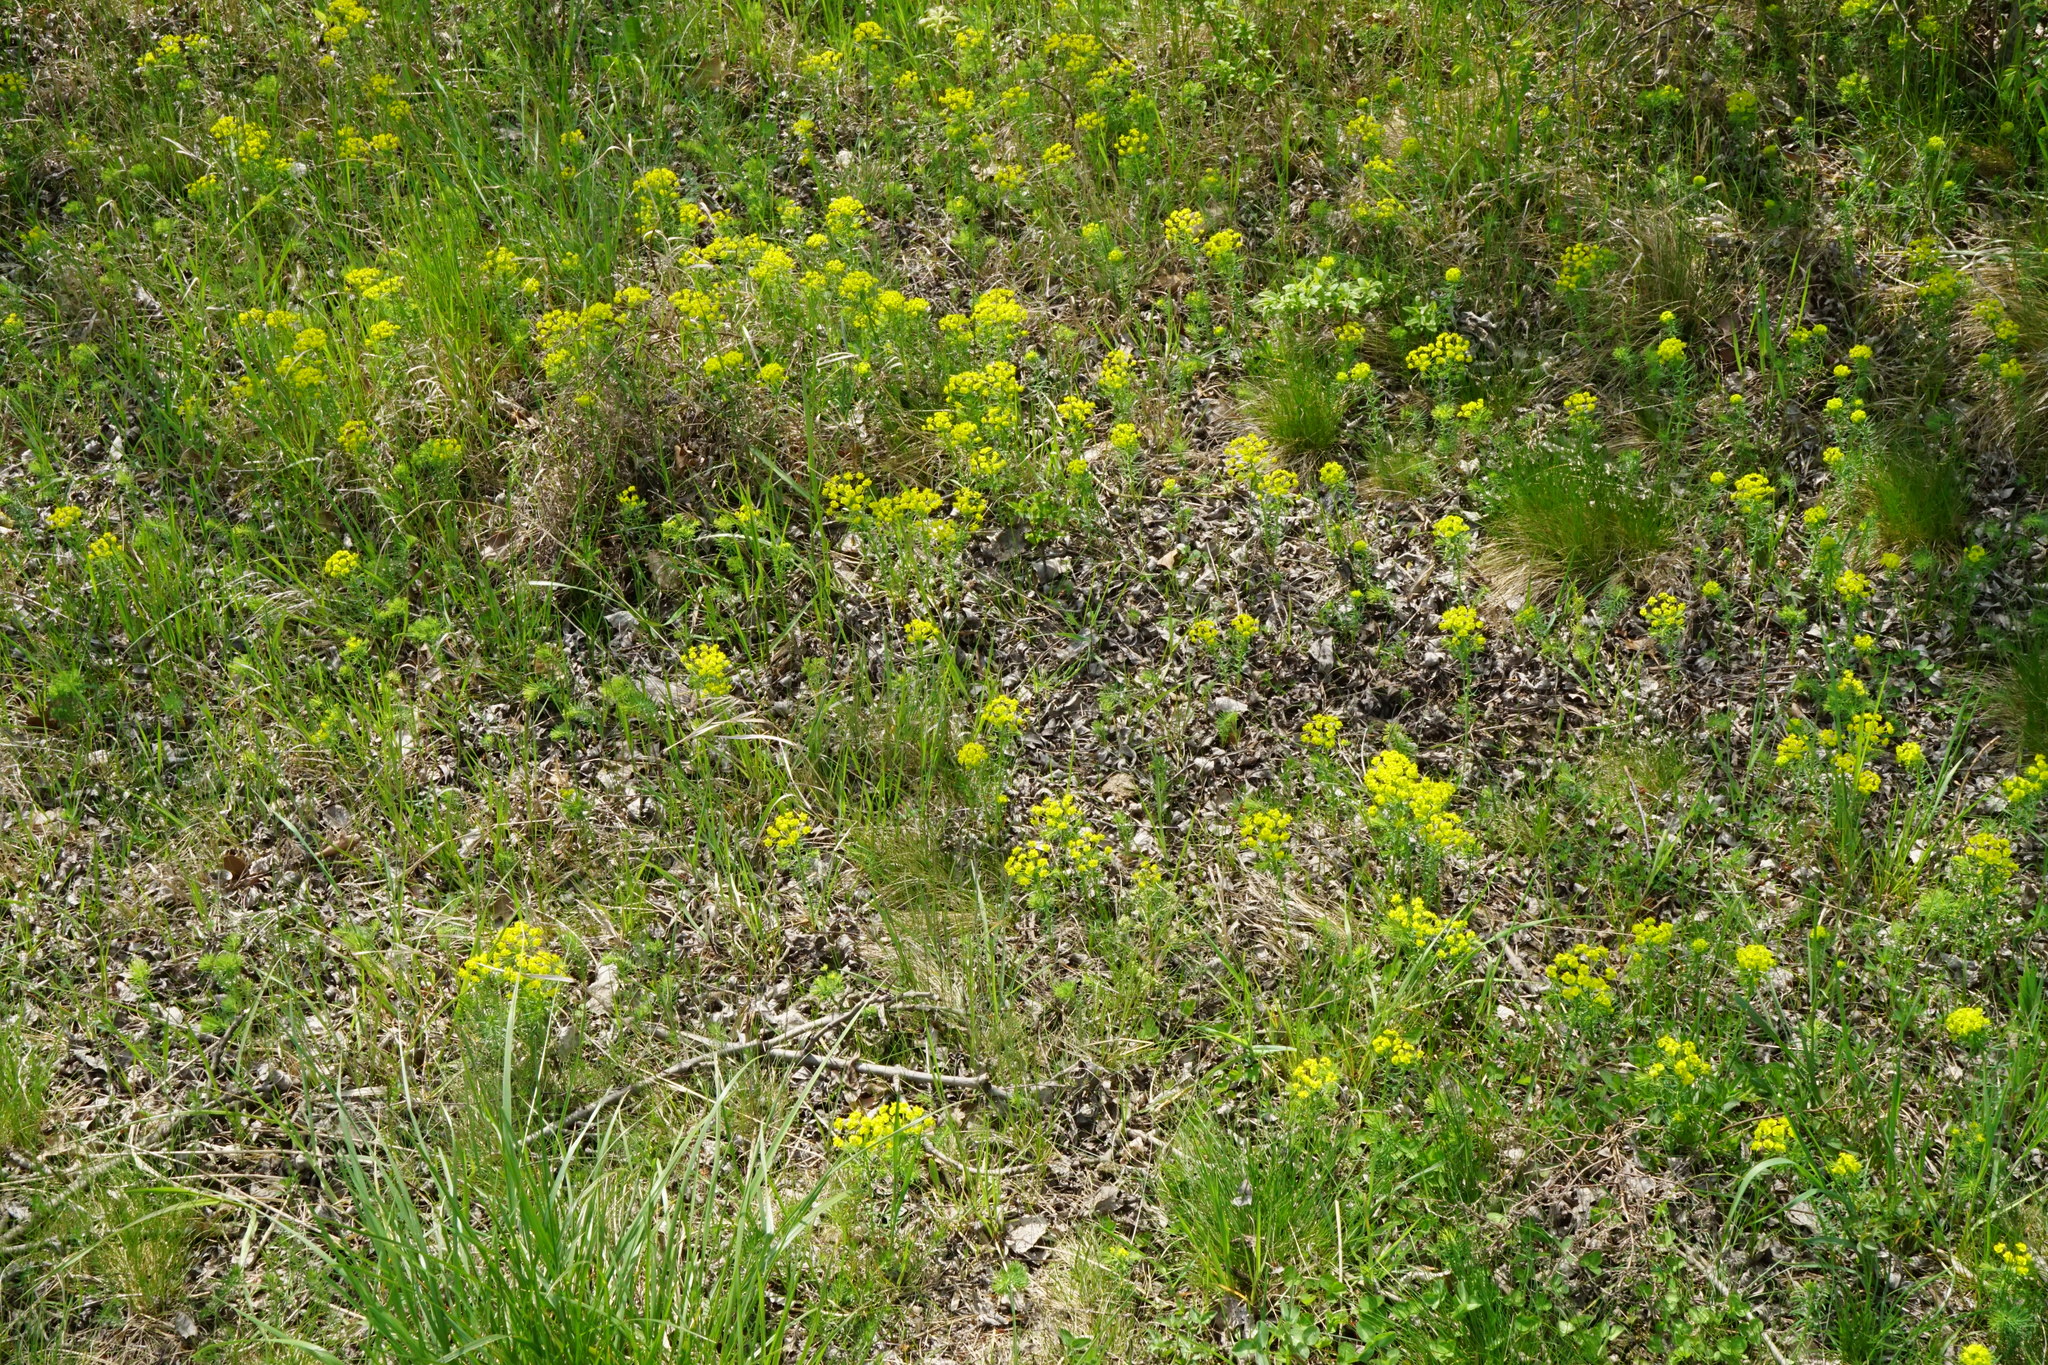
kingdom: Plantae
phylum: Tracheophyta
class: Magnoliopsida
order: Malpighiales
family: Euphorbiaceae
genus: Euphorbia
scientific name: Euphorbia cyparissias
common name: Cypress spurge
